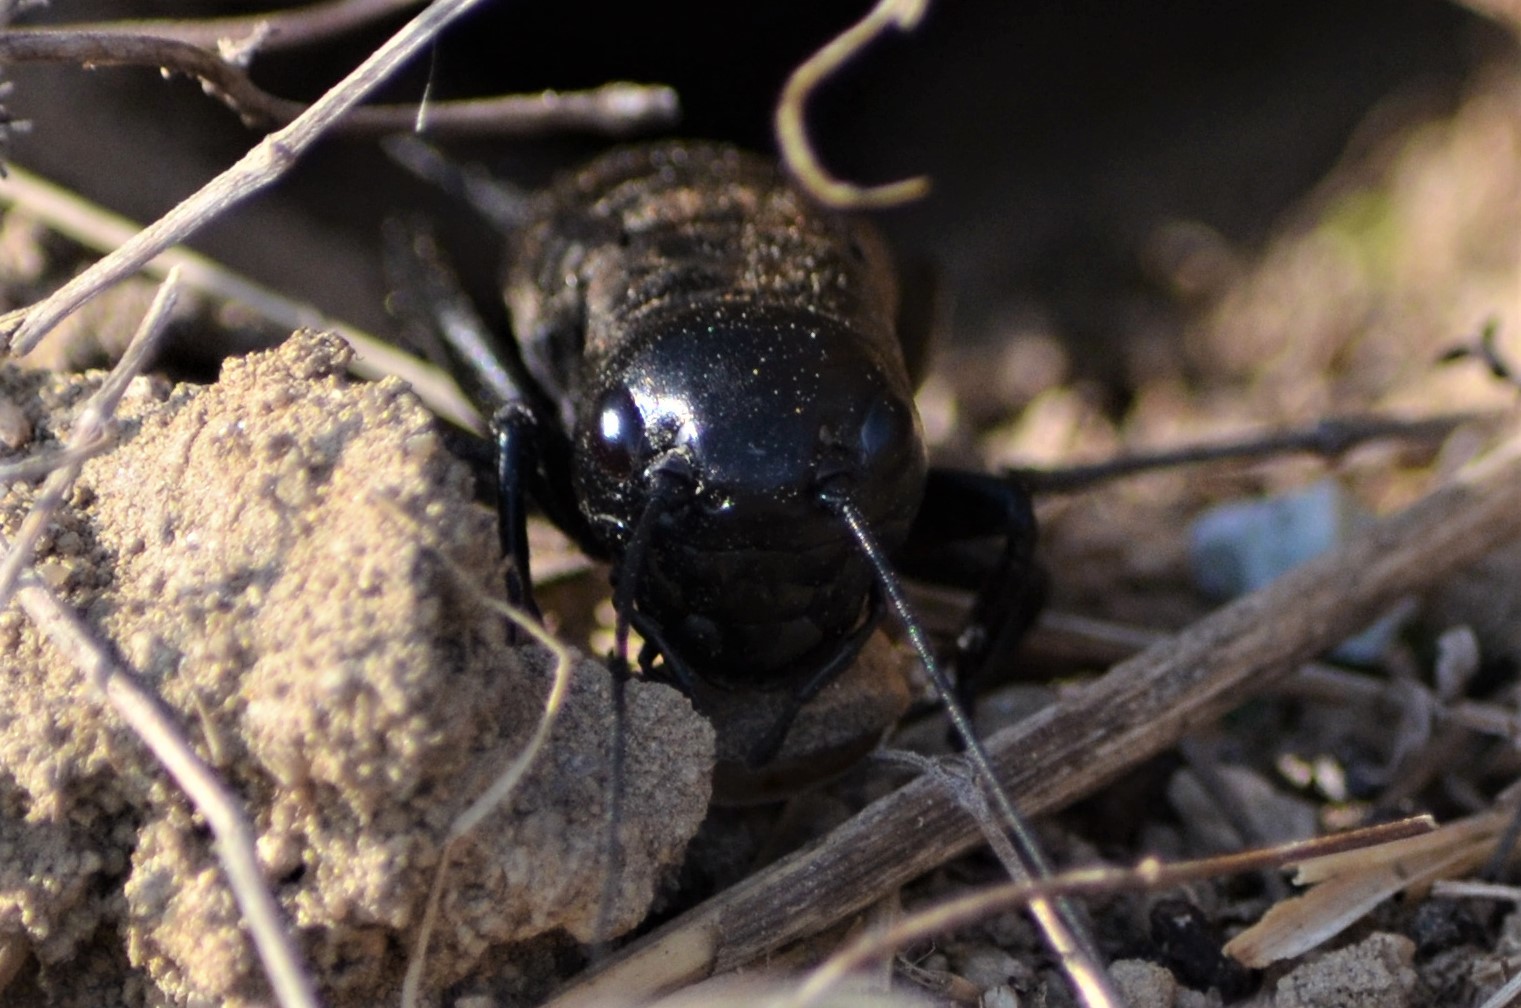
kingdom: Animalia
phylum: Arthropoda
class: Insecta
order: Orthoptera
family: Gryllidae
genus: Gryllus
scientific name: Gryllus campestris
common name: Field cricket
